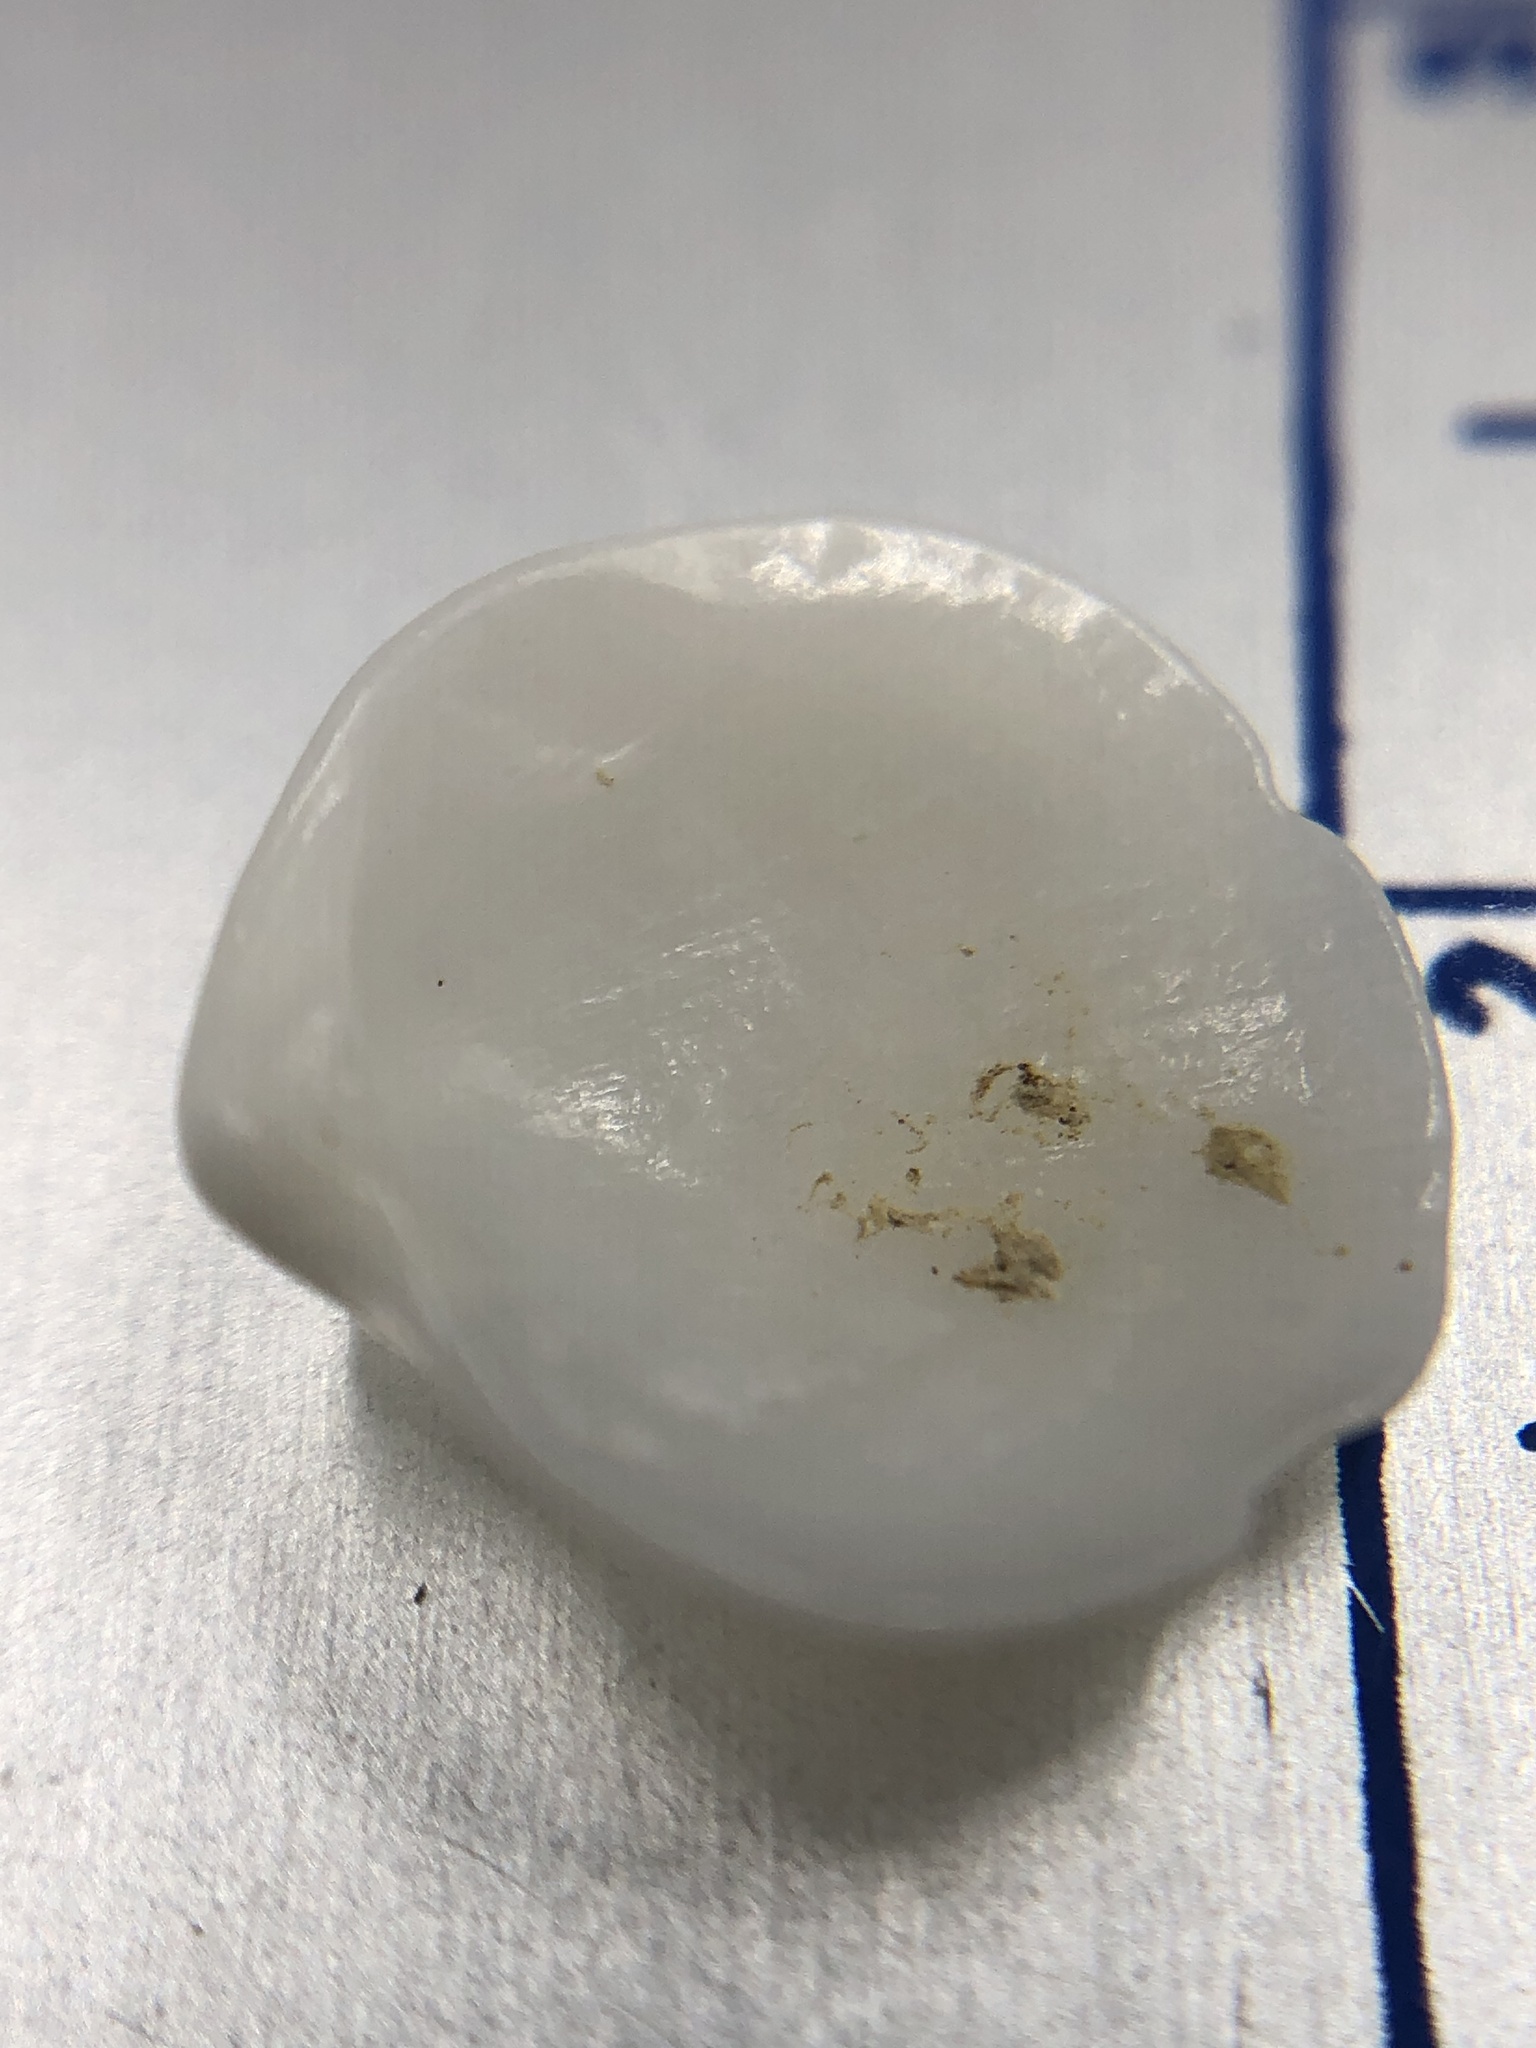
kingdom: Animalia
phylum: Mollusca
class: Bivalvia
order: Lucinida
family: Lucinidae
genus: Parvilucina
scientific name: Parvilucina crenella
